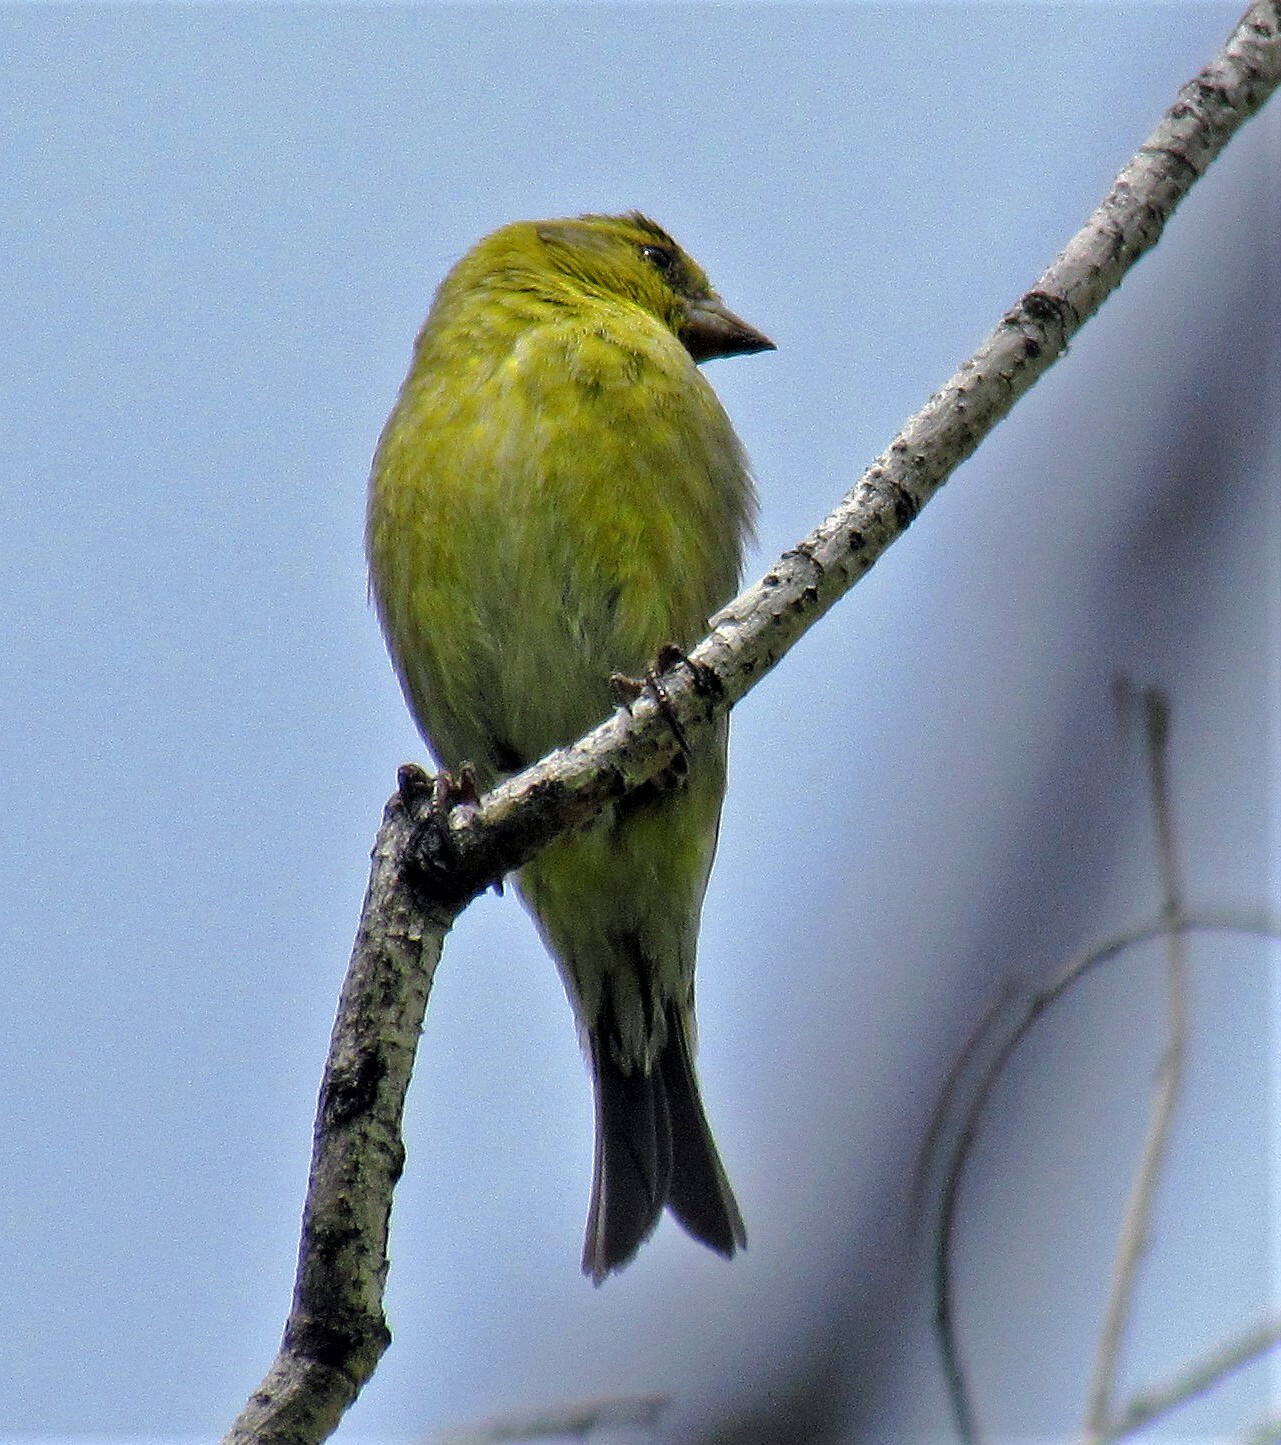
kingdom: Animalia
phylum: Chordata
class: Aves
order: Passeriformes
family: Fringillidae
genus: Spinus
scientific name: Spinus barbatus
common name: Black-chinned siskin
